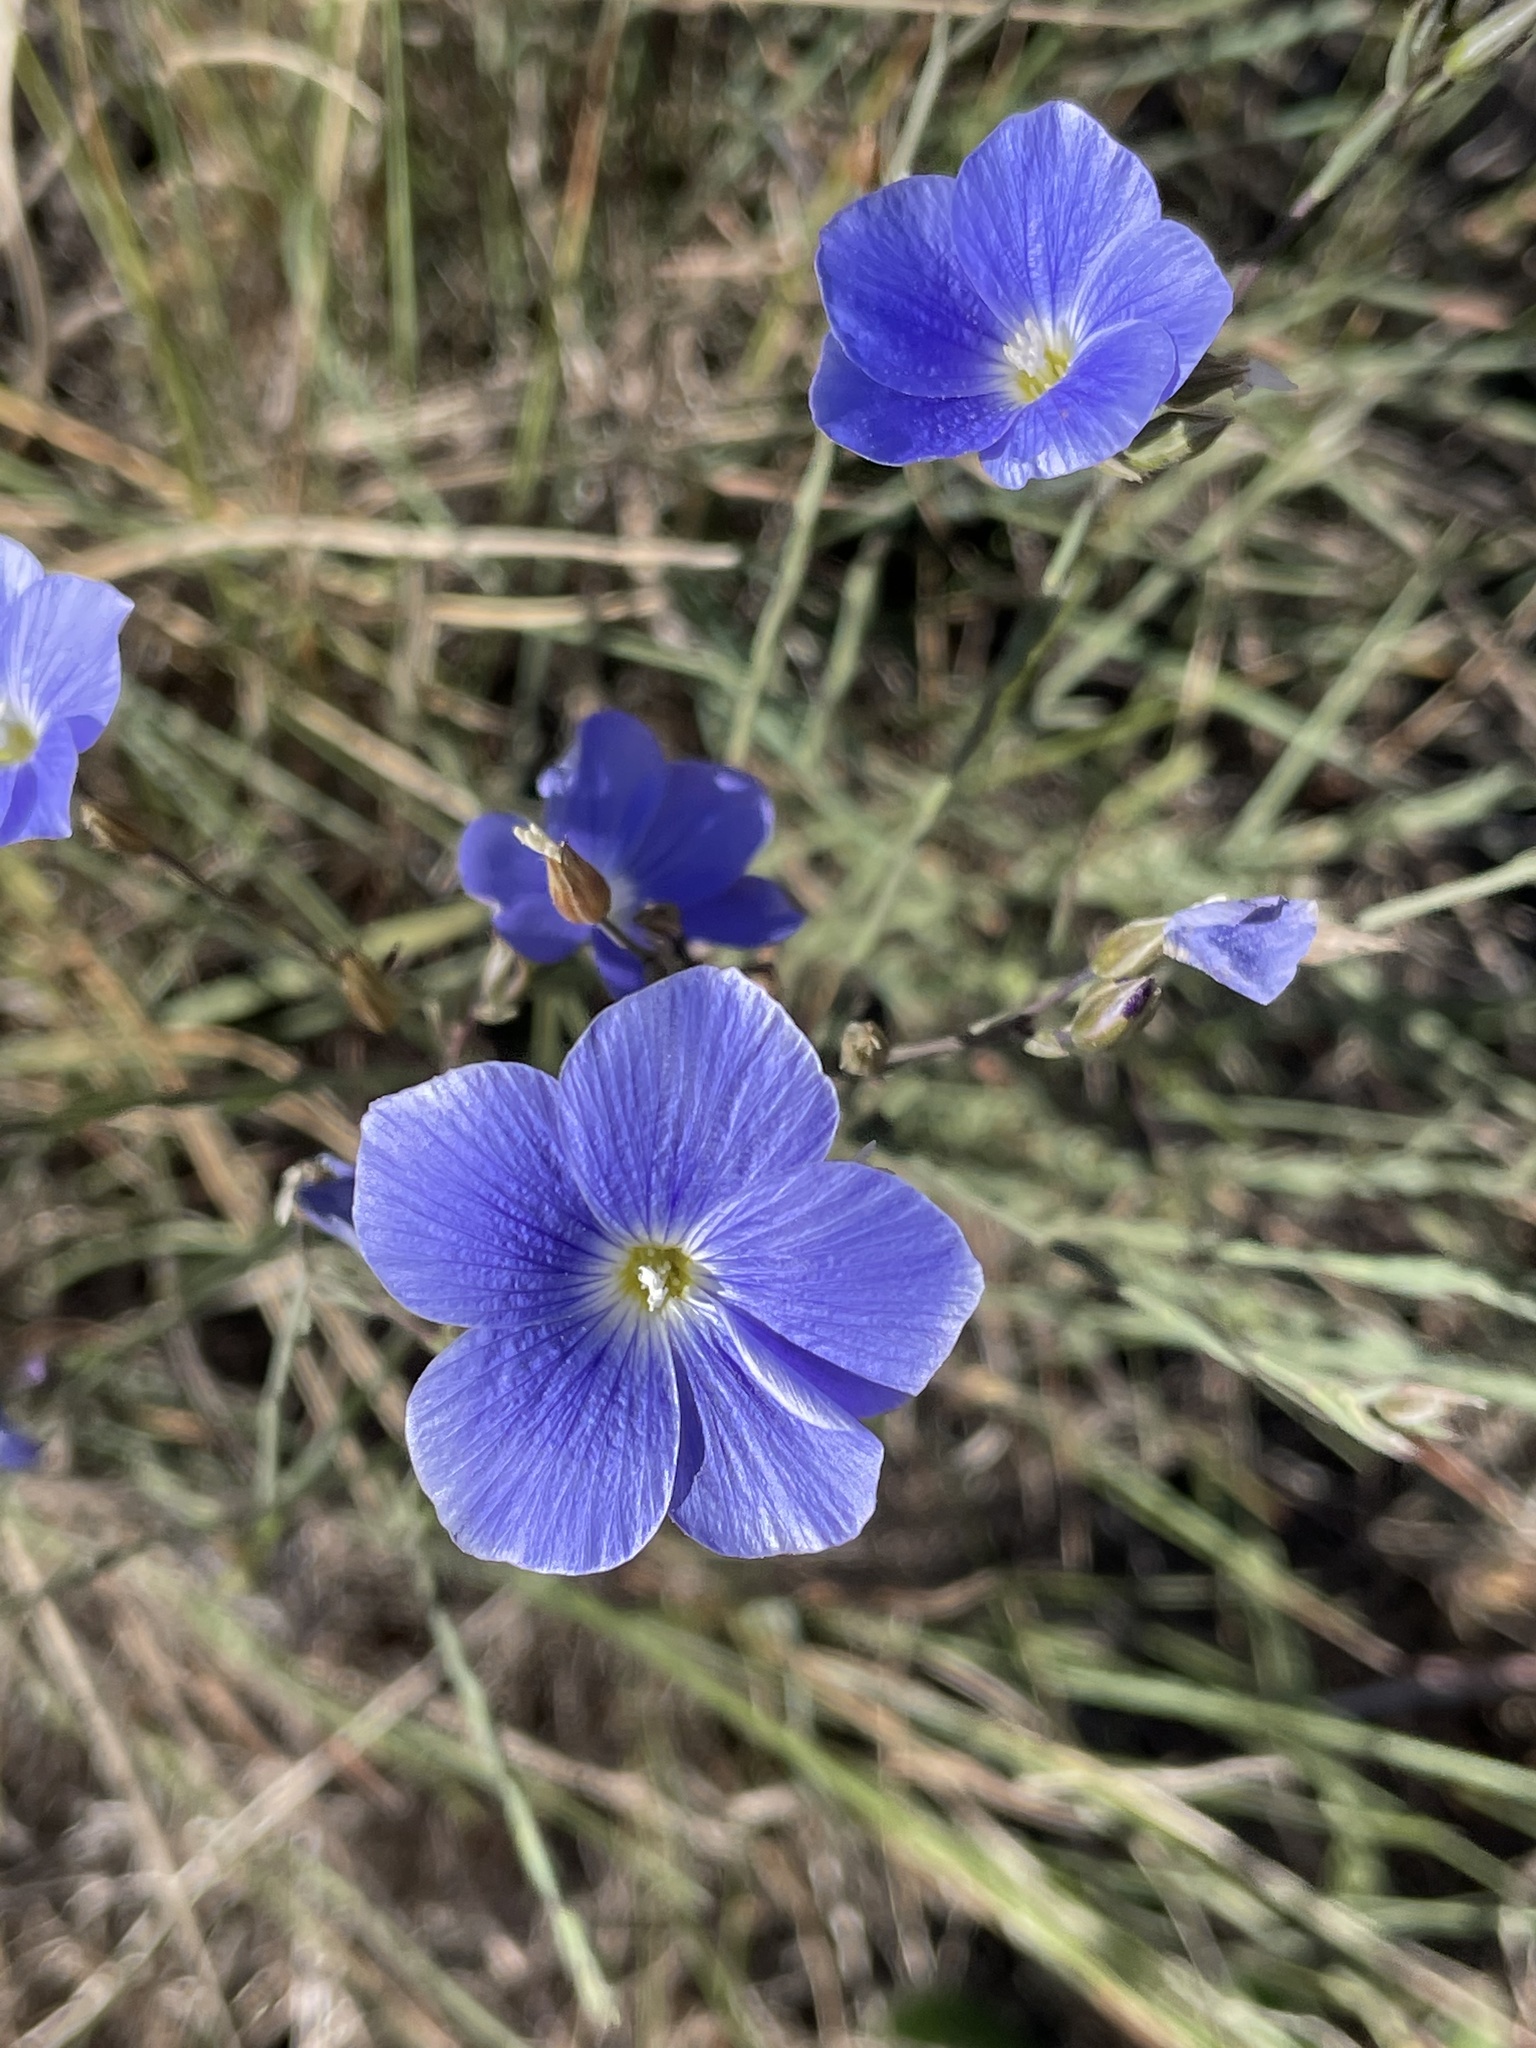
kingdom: Plantae
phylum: Tracheophyta
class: Magnoliopsida
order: Malpighiales
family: Linaceae
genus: Linum
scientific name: Linum narbonense
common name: Flax
